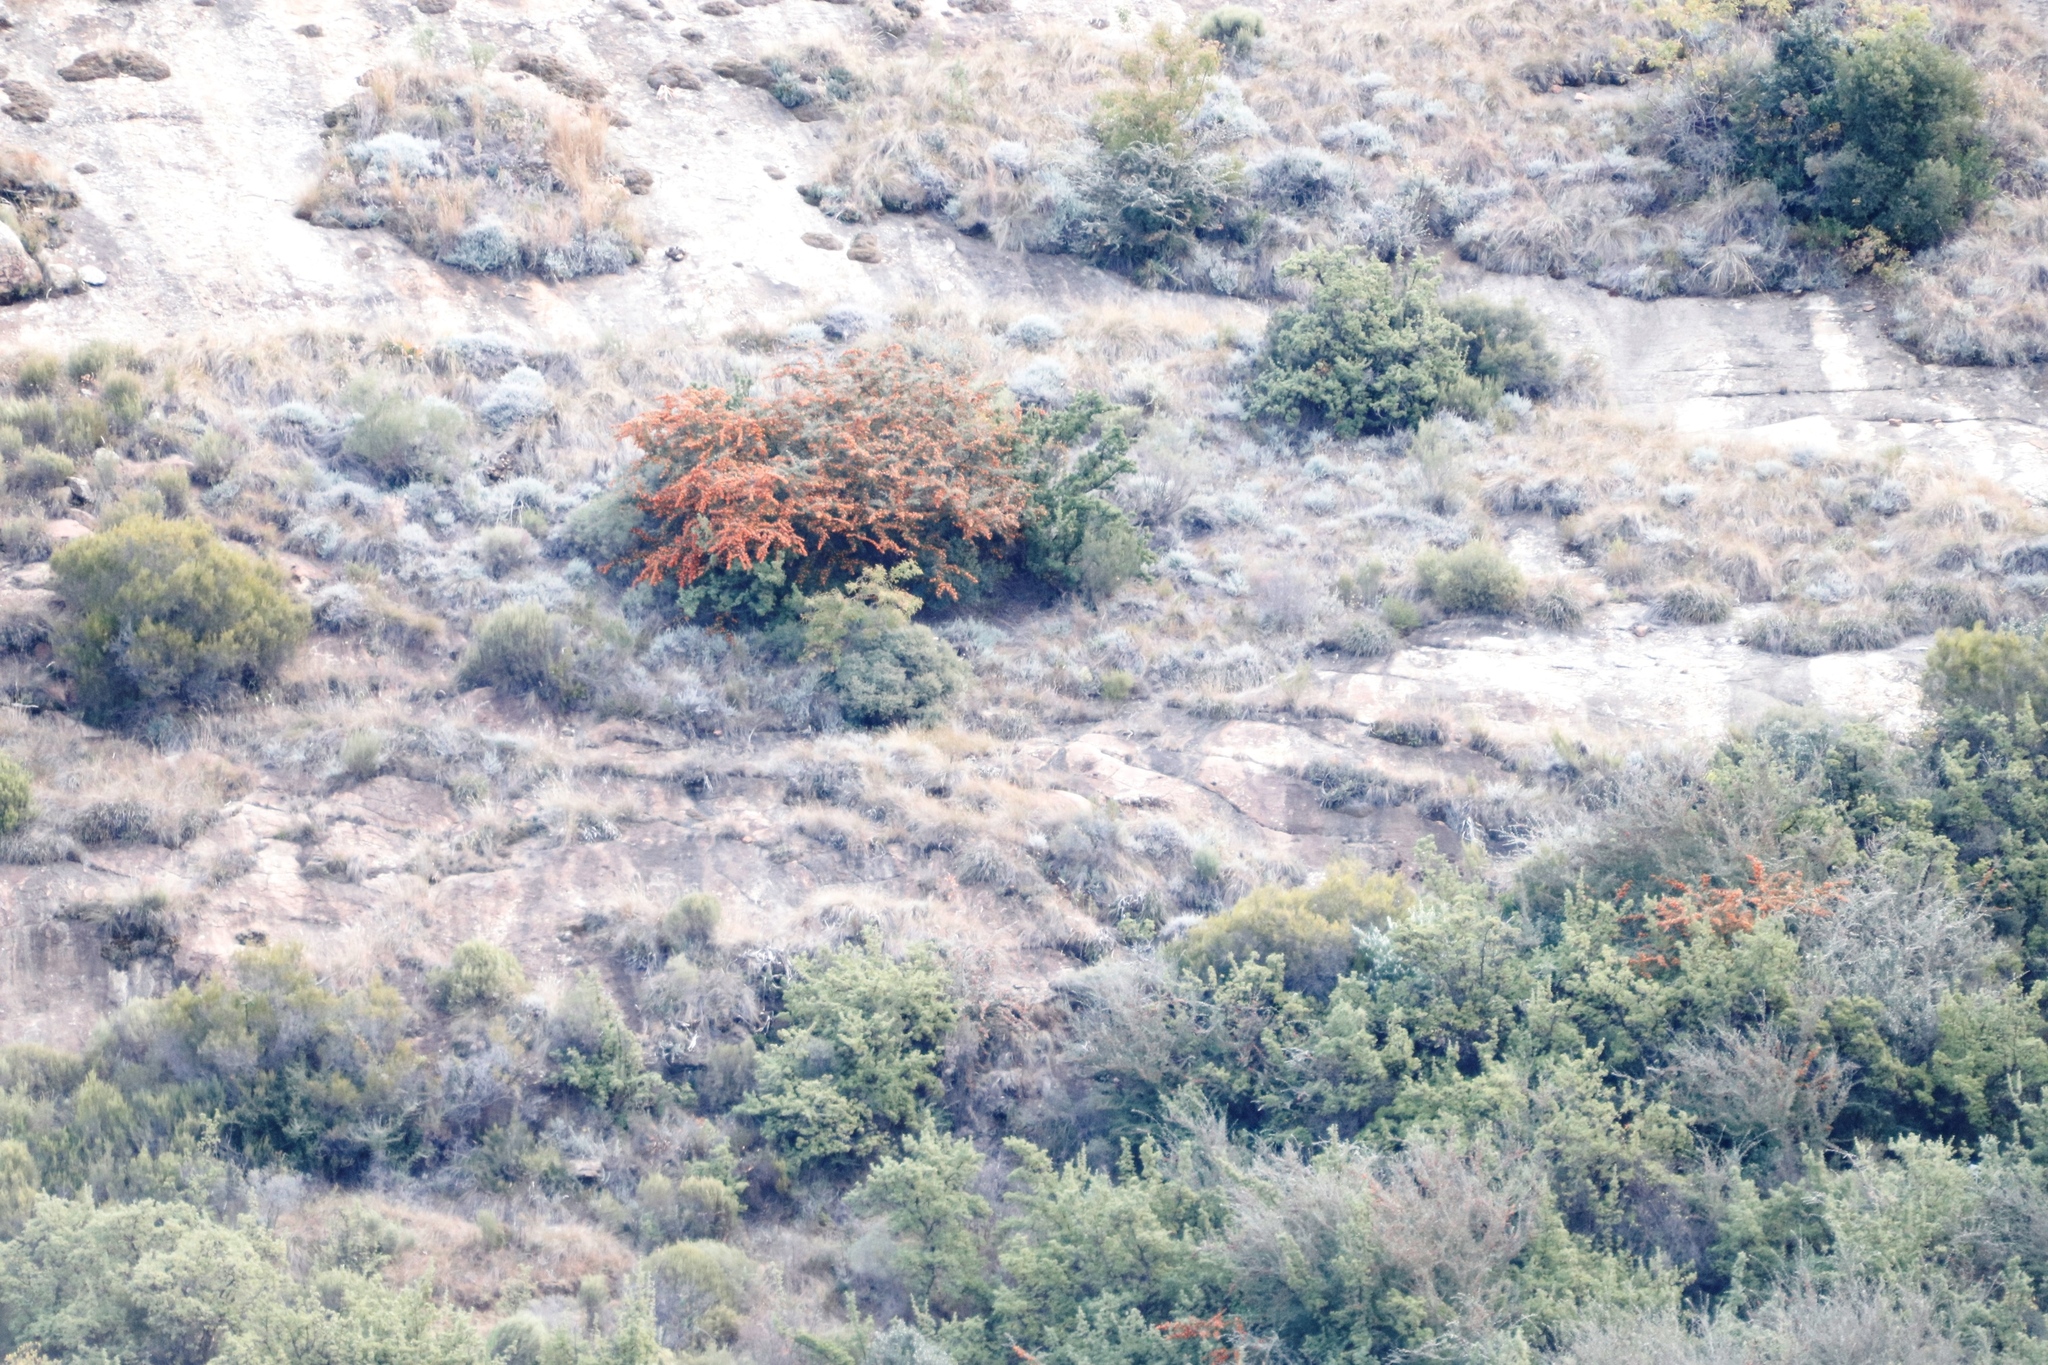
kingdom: Plantae
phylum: Tracheophyta
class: Magnoliopsida
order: Rosales
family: Rosaceae
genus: Pyracantha
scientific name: Pyracantha angustifolia
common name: Narrowleaf firethorn
